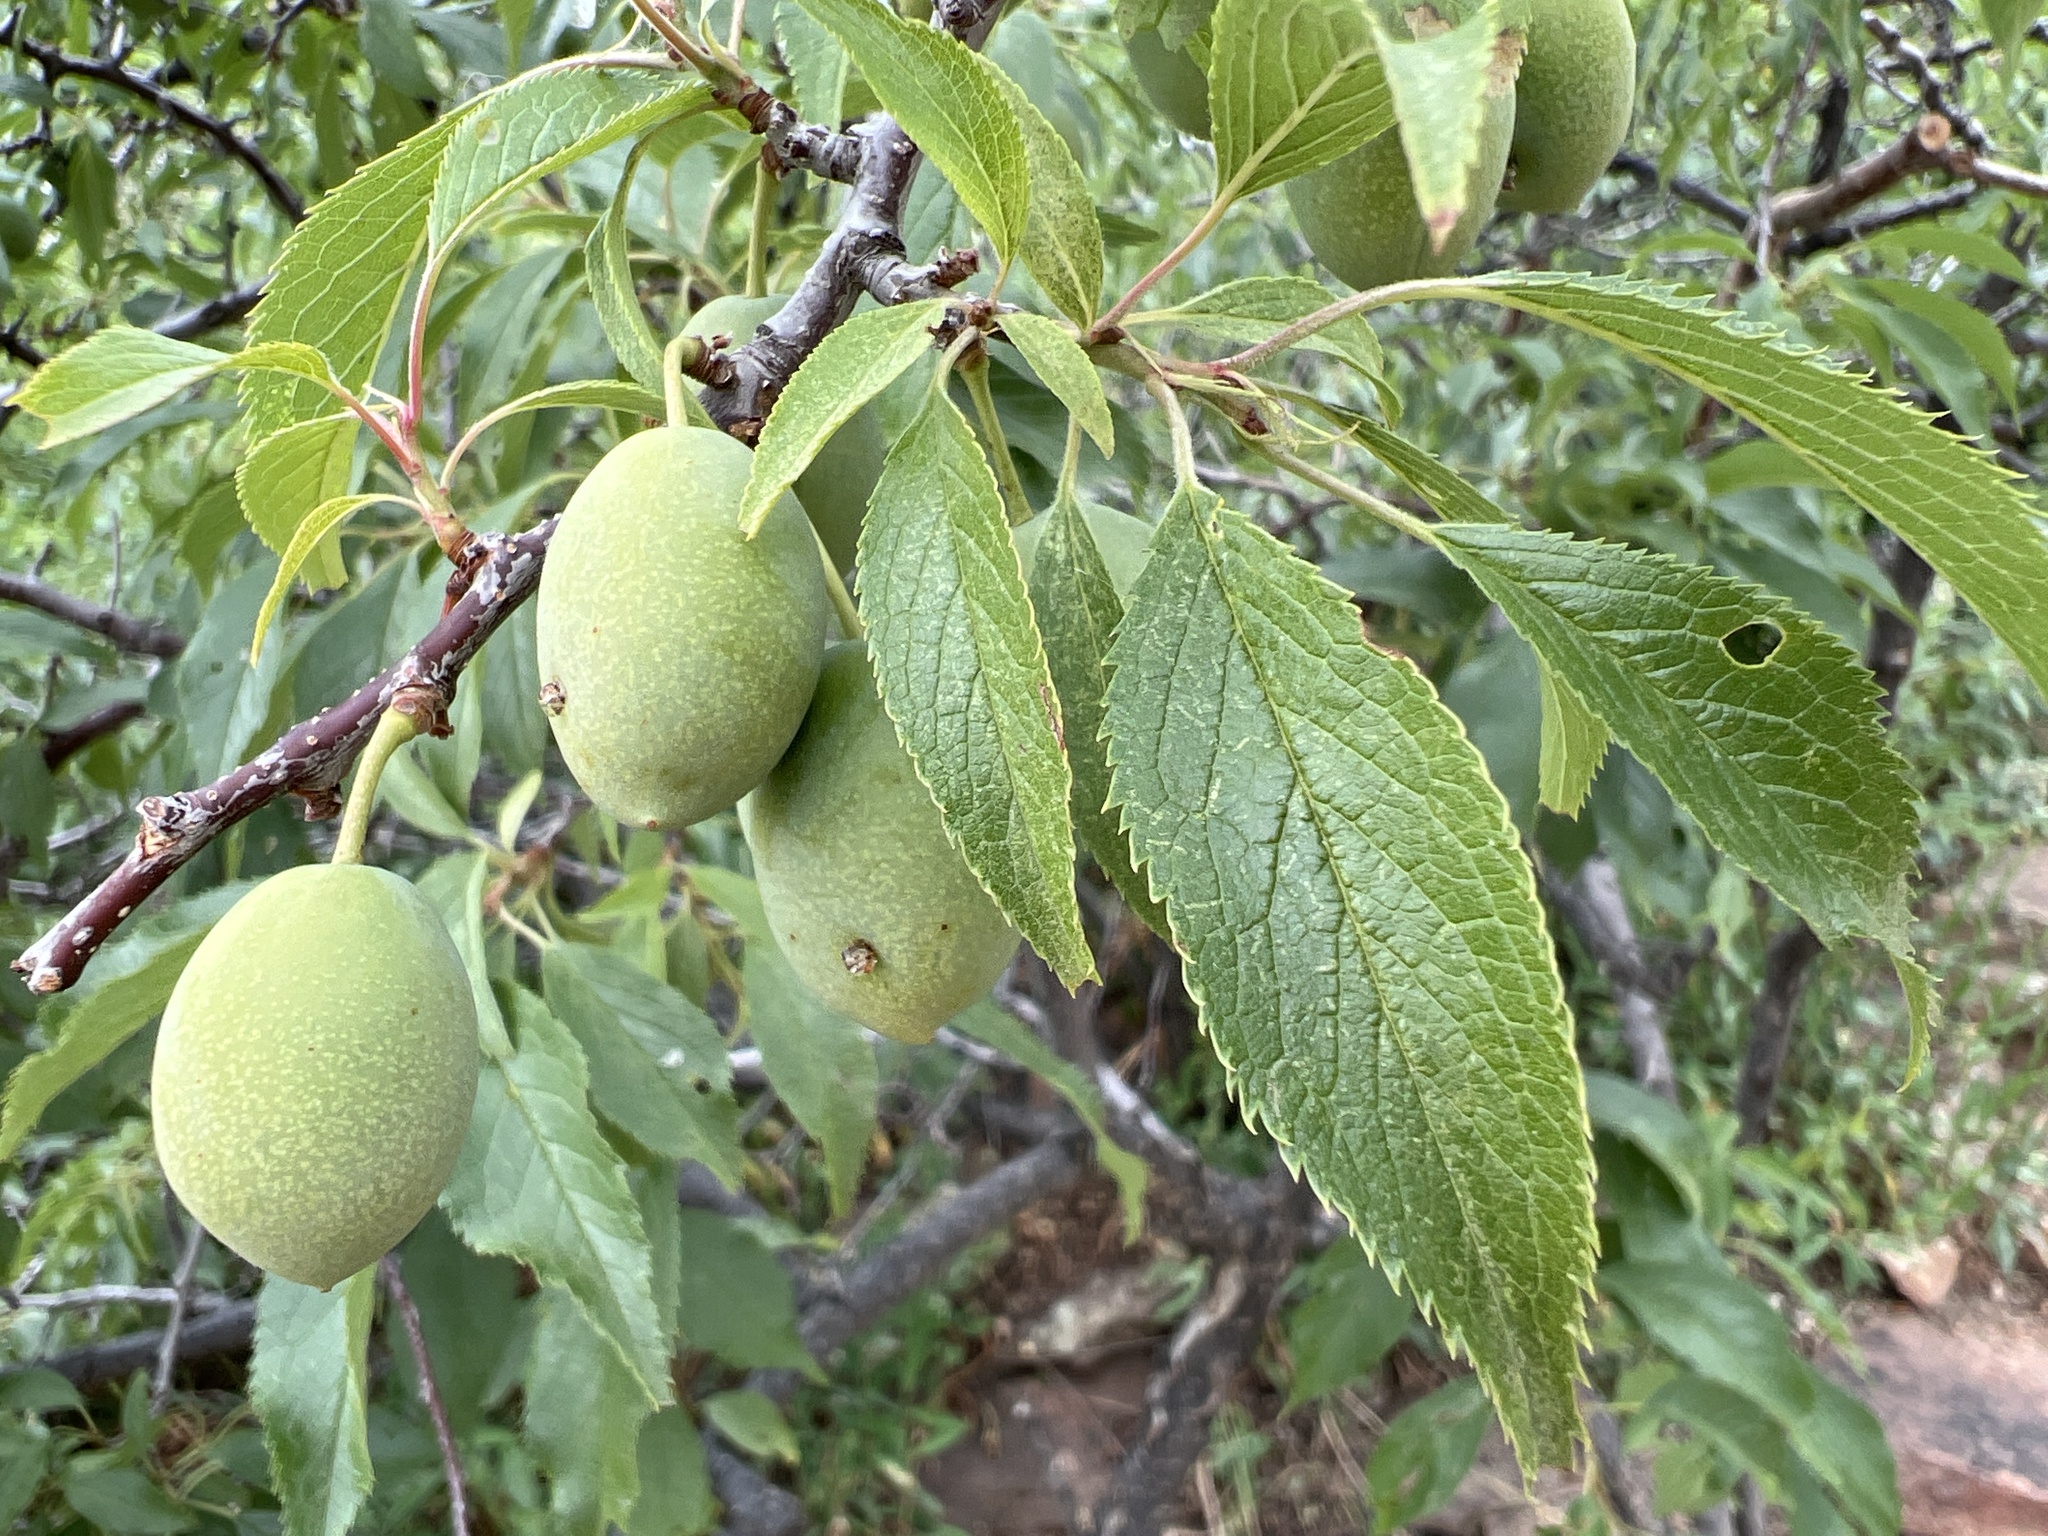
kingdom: Plantae
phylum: Tracheophyta
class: Magnoliopsida
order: Rosales
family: Rosaceae
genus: Prunus
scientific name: Prunus americana
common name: American plum
